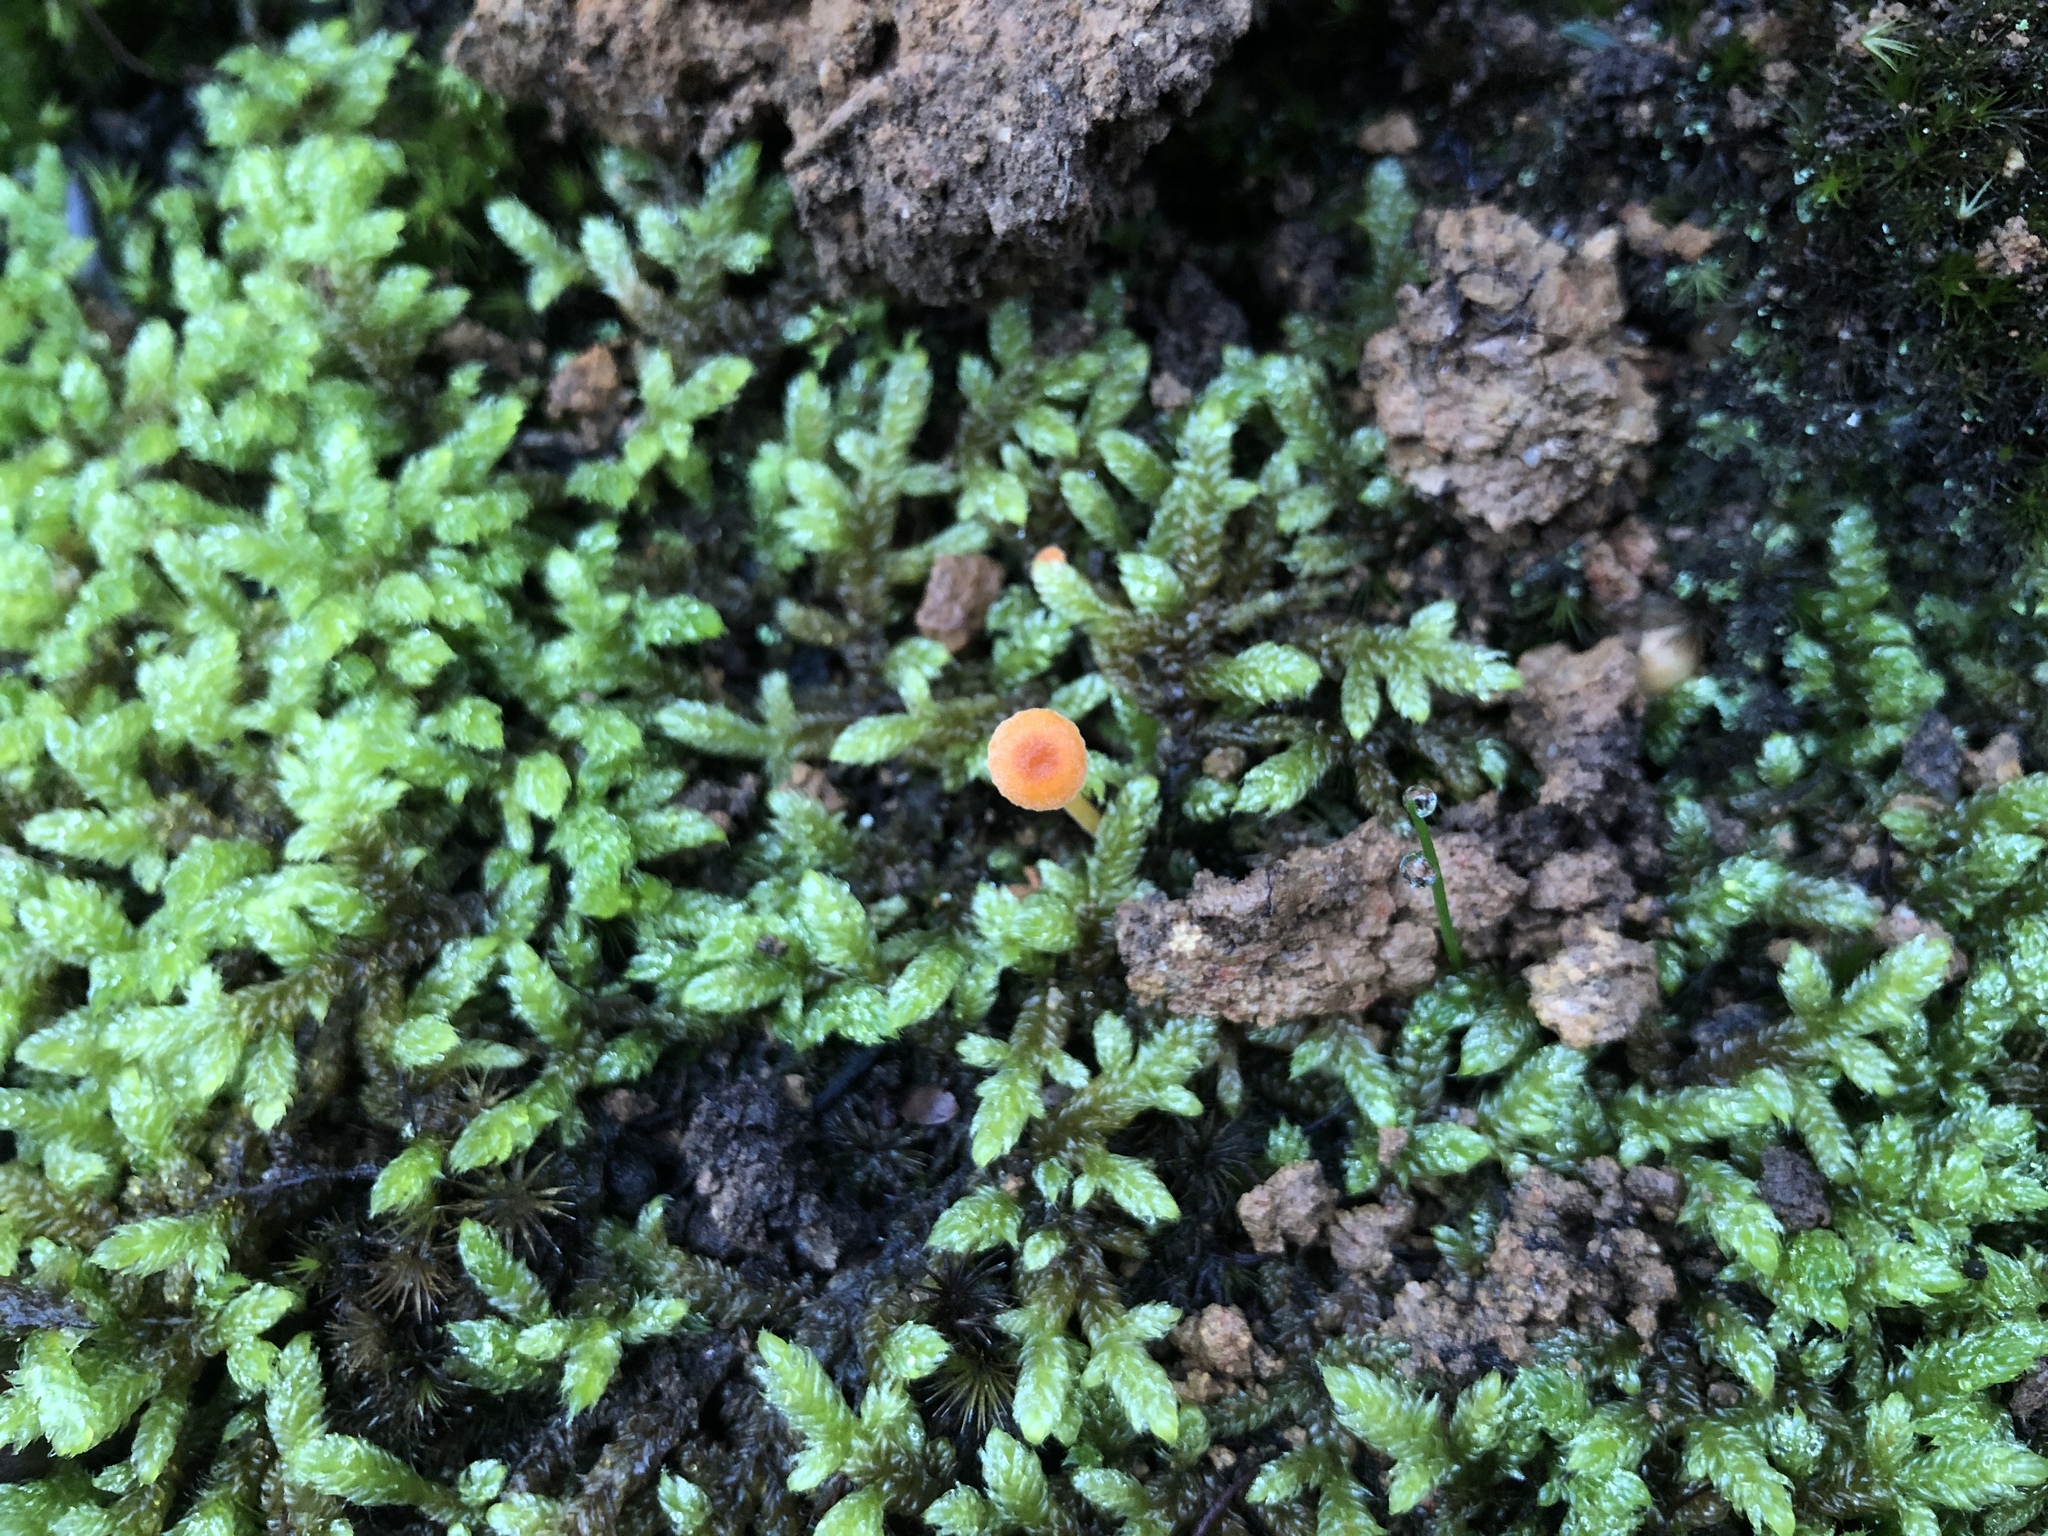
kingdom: Fungi
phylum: Basidiomycota
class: Agaricomycetes
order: Hymenochaetales
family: Rickenellaceae
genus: Rickenella
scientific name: Rickenella fibula
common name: Orange mosscap
